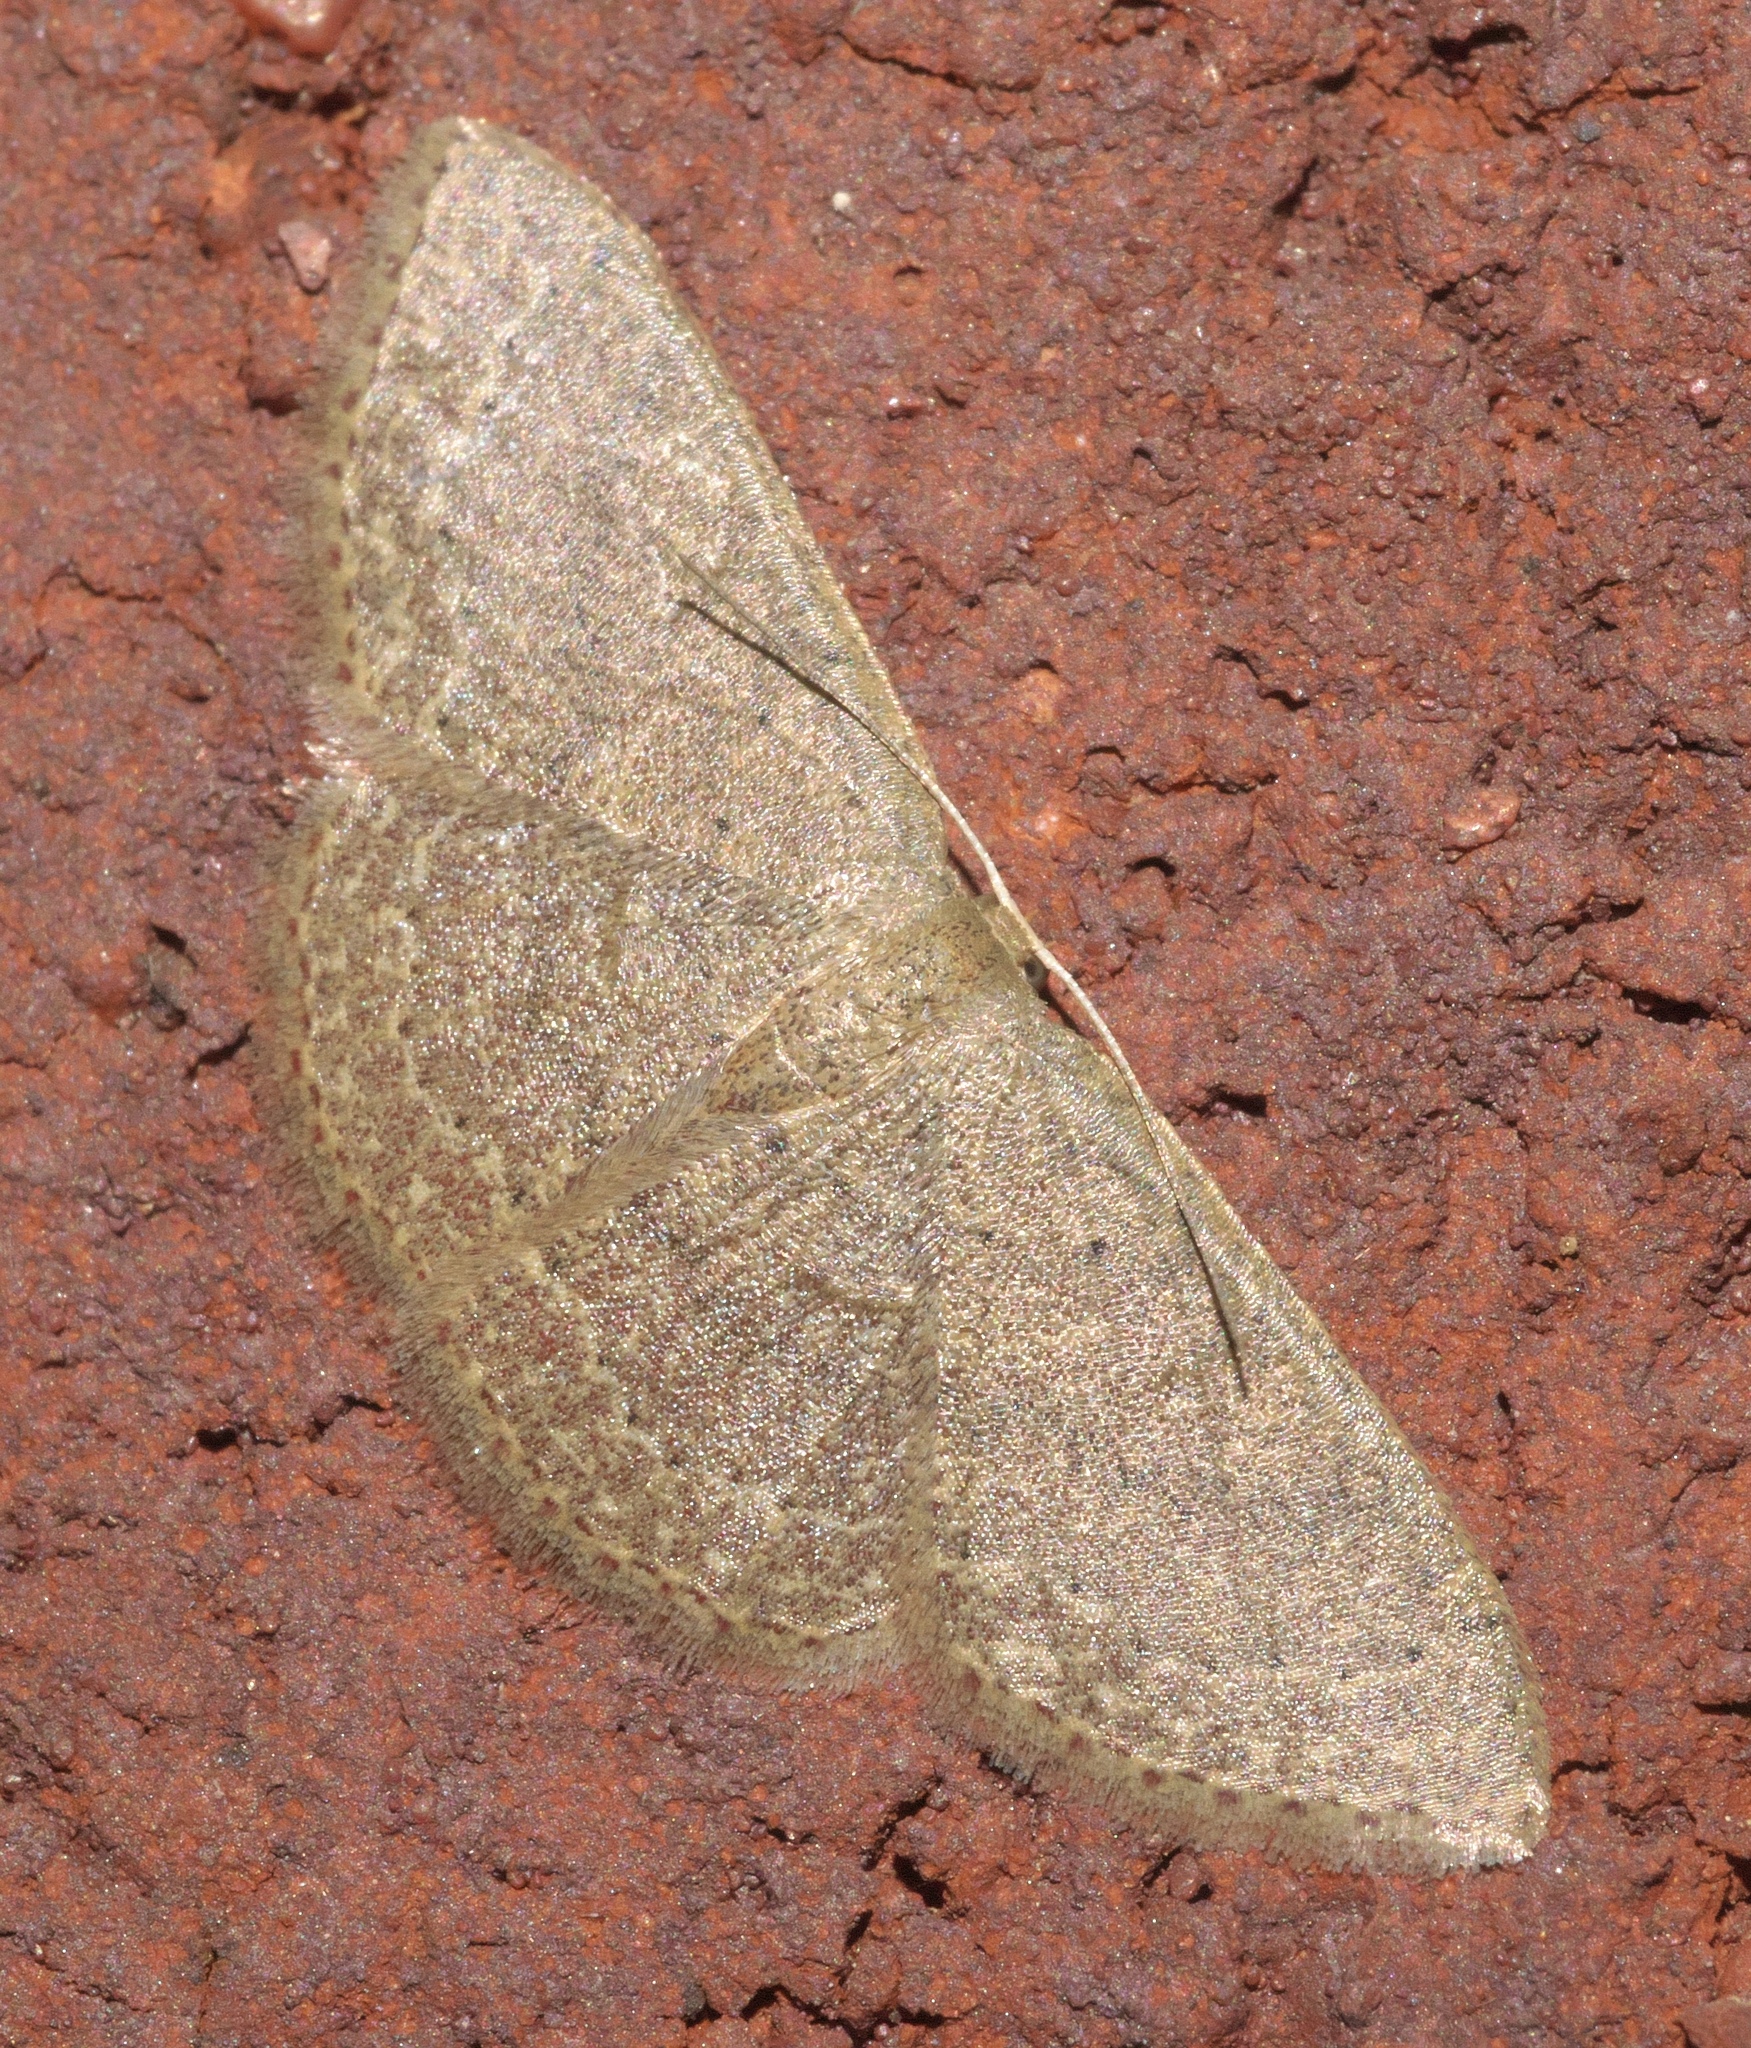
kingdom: Animalia
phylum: Arthropoda
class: Insecta
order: Lepidoptera
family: Geometridae
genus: Pleuroprucha
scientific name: Pleuroprucha insulsaria
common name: Common tan wave
